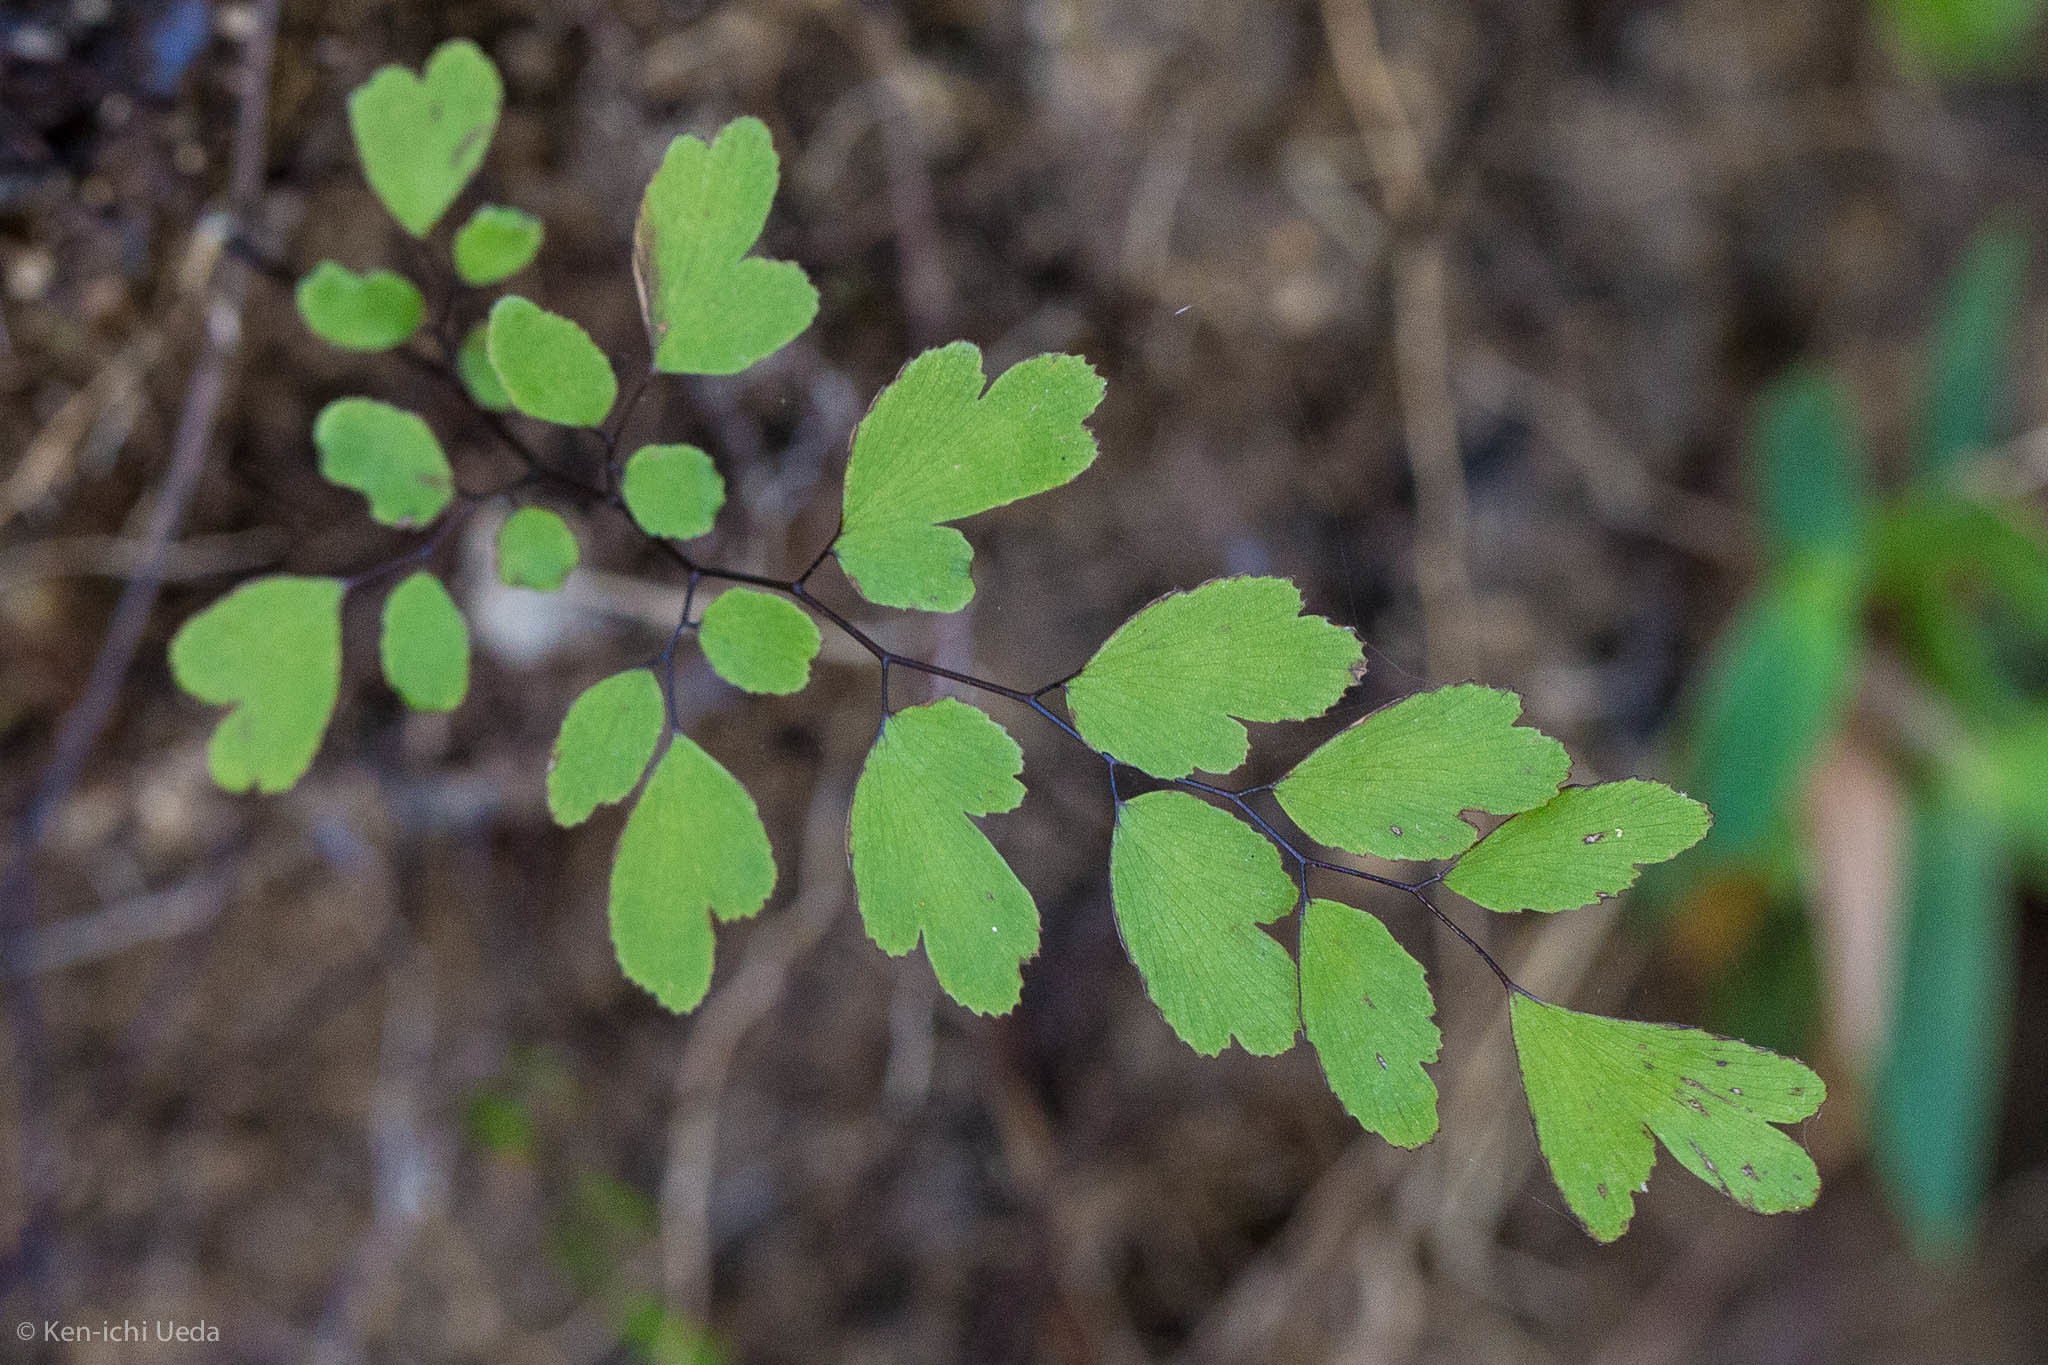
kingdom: Plantae
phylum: Tracheophyta
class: Polypodiopsida
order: Polypodiales
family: Pteridaceae
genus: Adiantum
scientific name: Adiantum capillus-veneris
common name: Maidenhair fern
